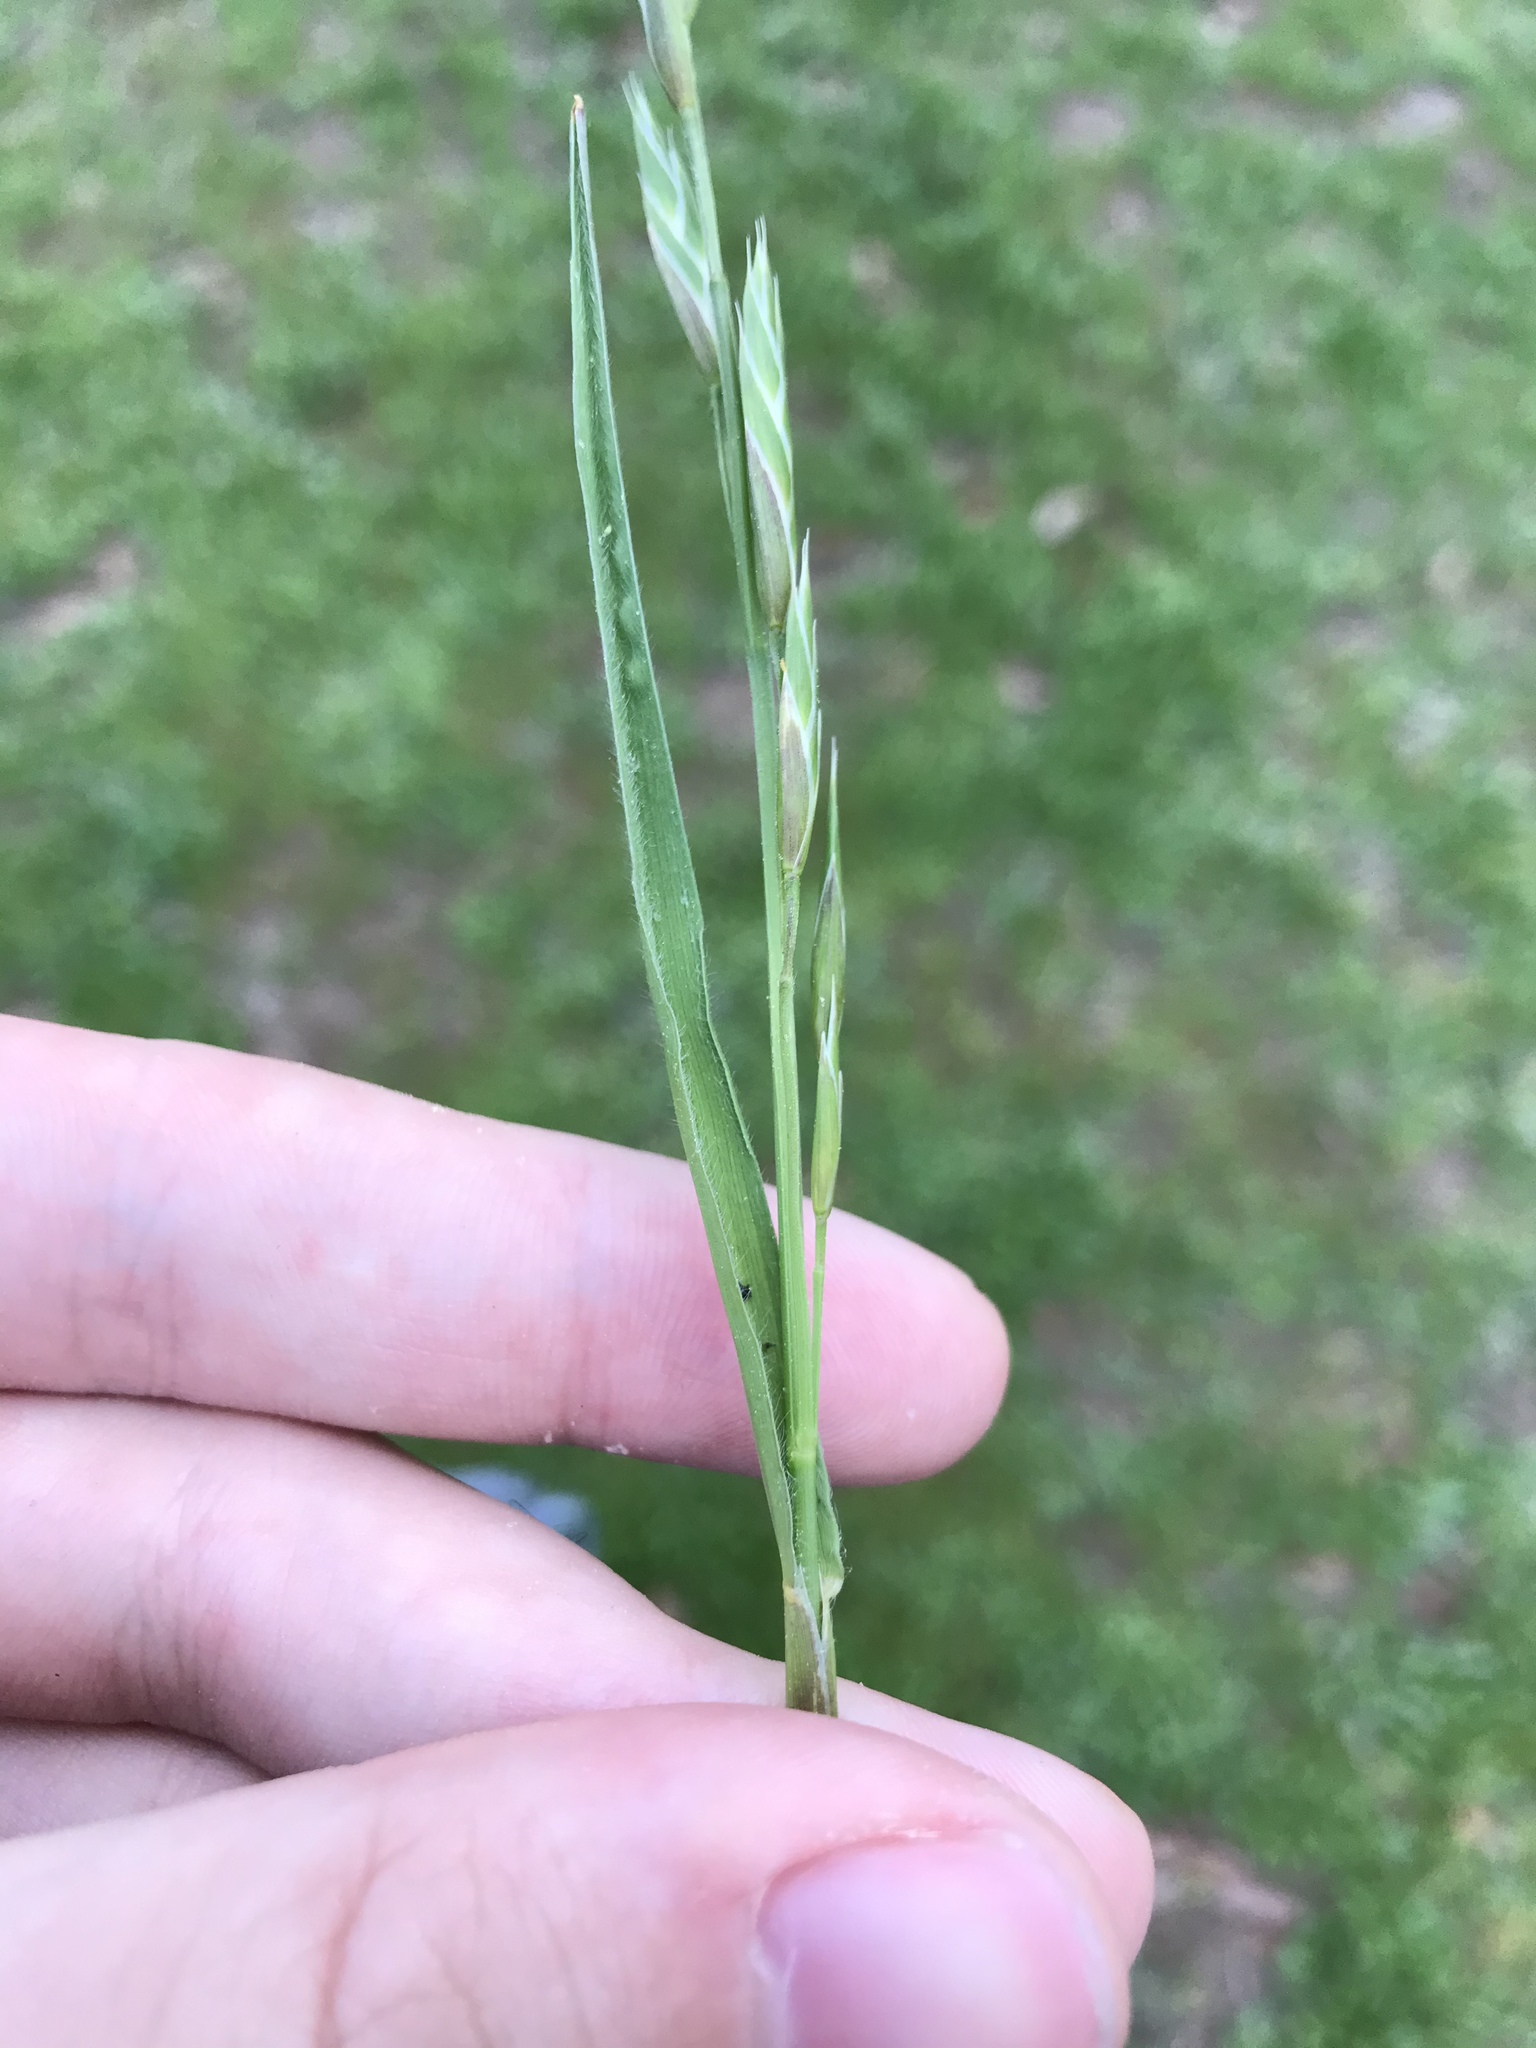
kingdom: Plantae
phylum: Tracheophyta
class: Liliopsida
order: Poales
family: Poaceae
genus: Bromus
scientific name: Bromus catharticus
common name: Rescuegrass
